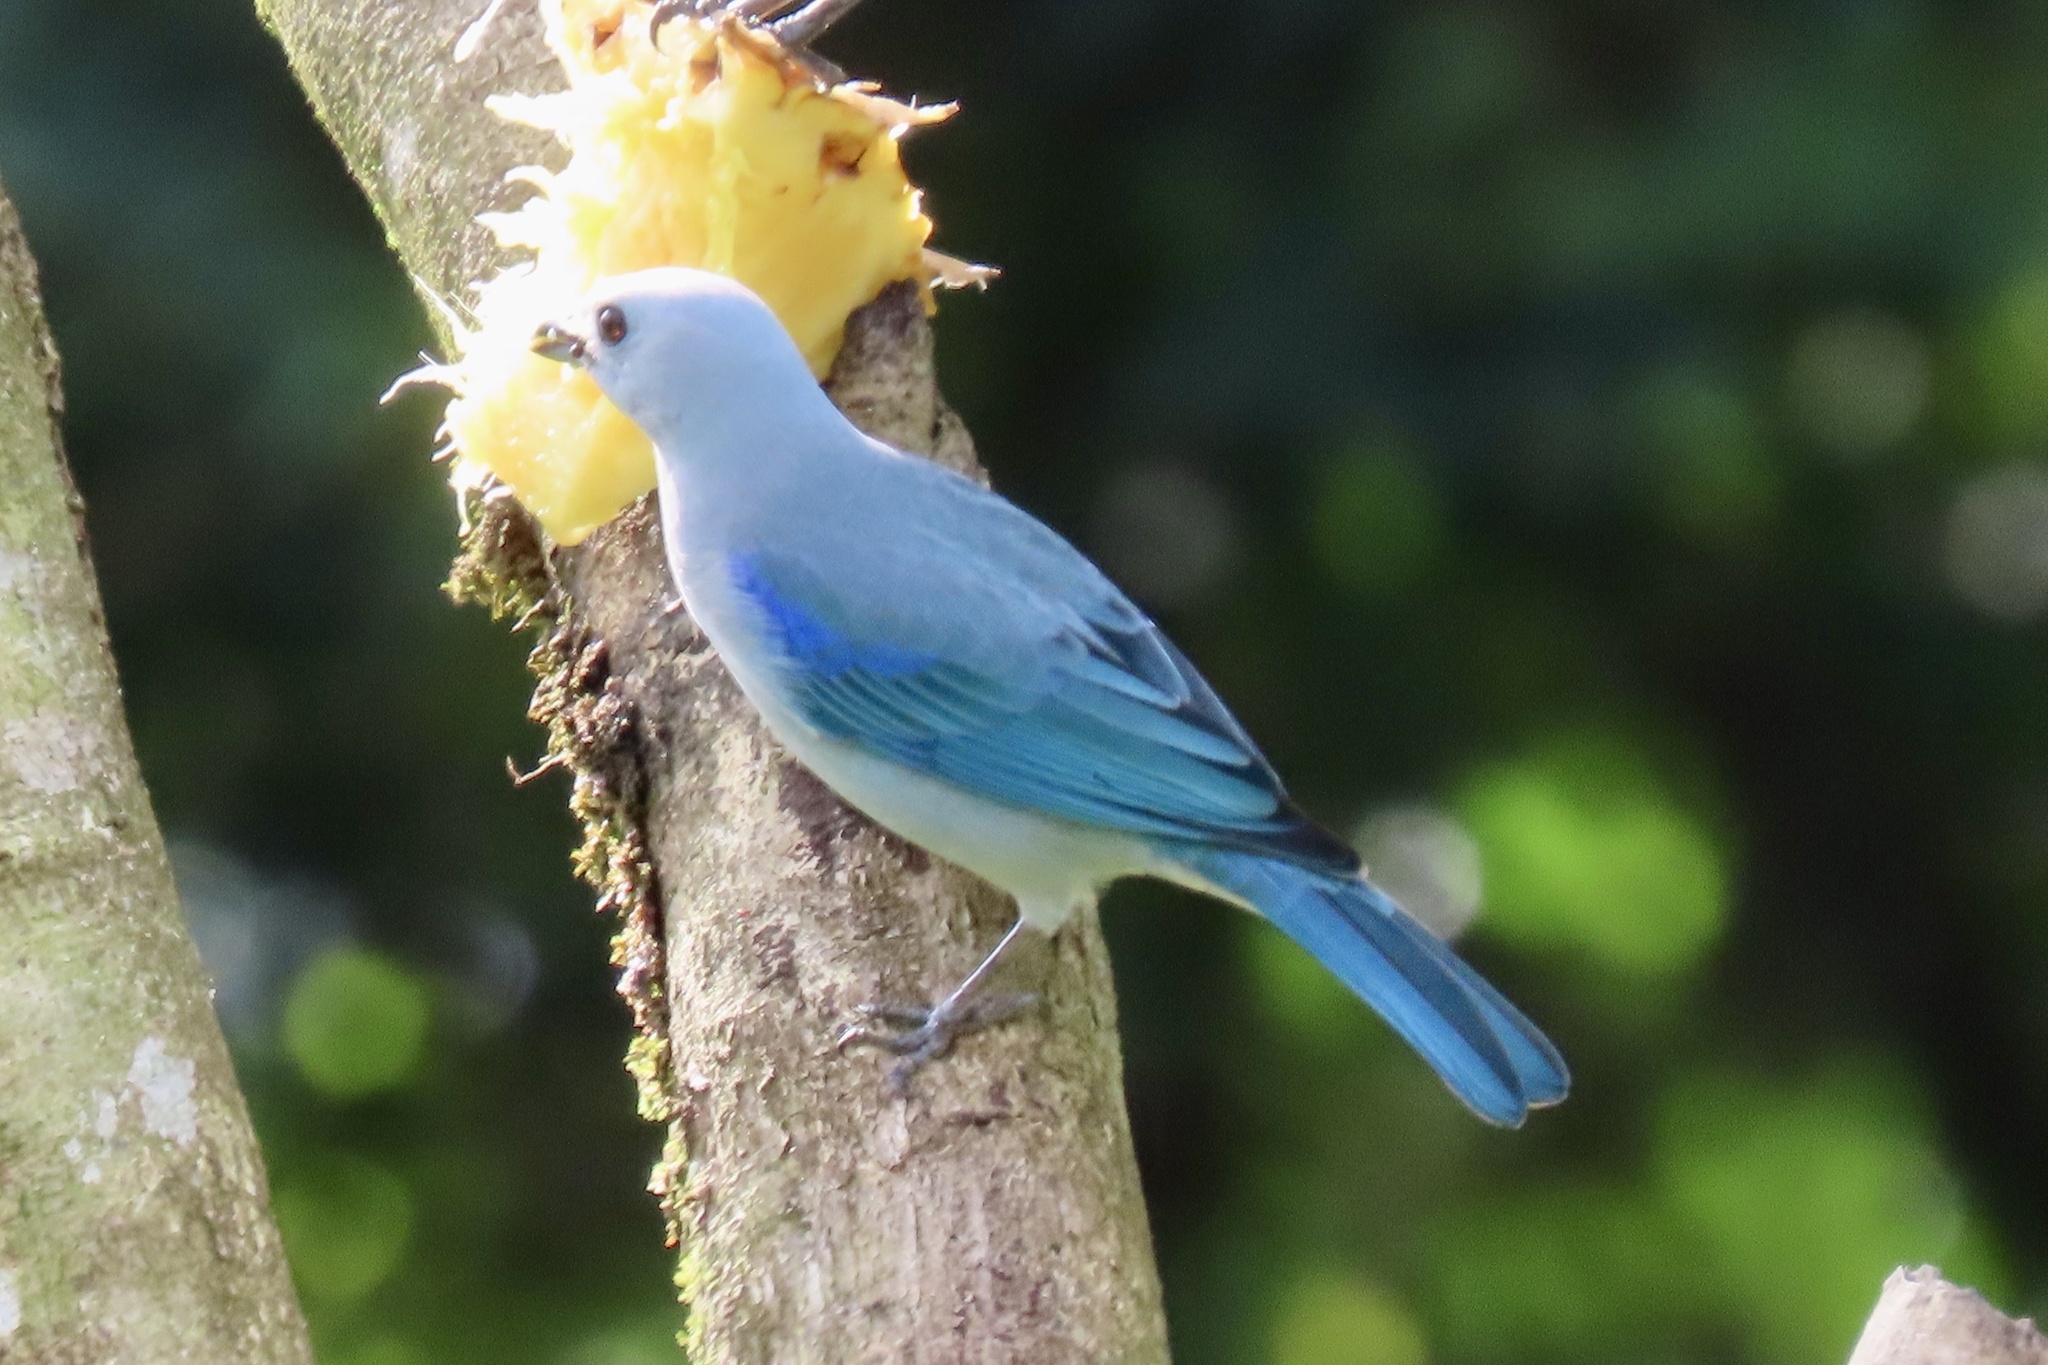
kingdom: Animalia
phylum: Chordata
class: Aves
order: Passeriformes
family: Thraupidae
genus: Thraupis
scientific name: Thraupis episcopus
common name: Blue-grey tanager
